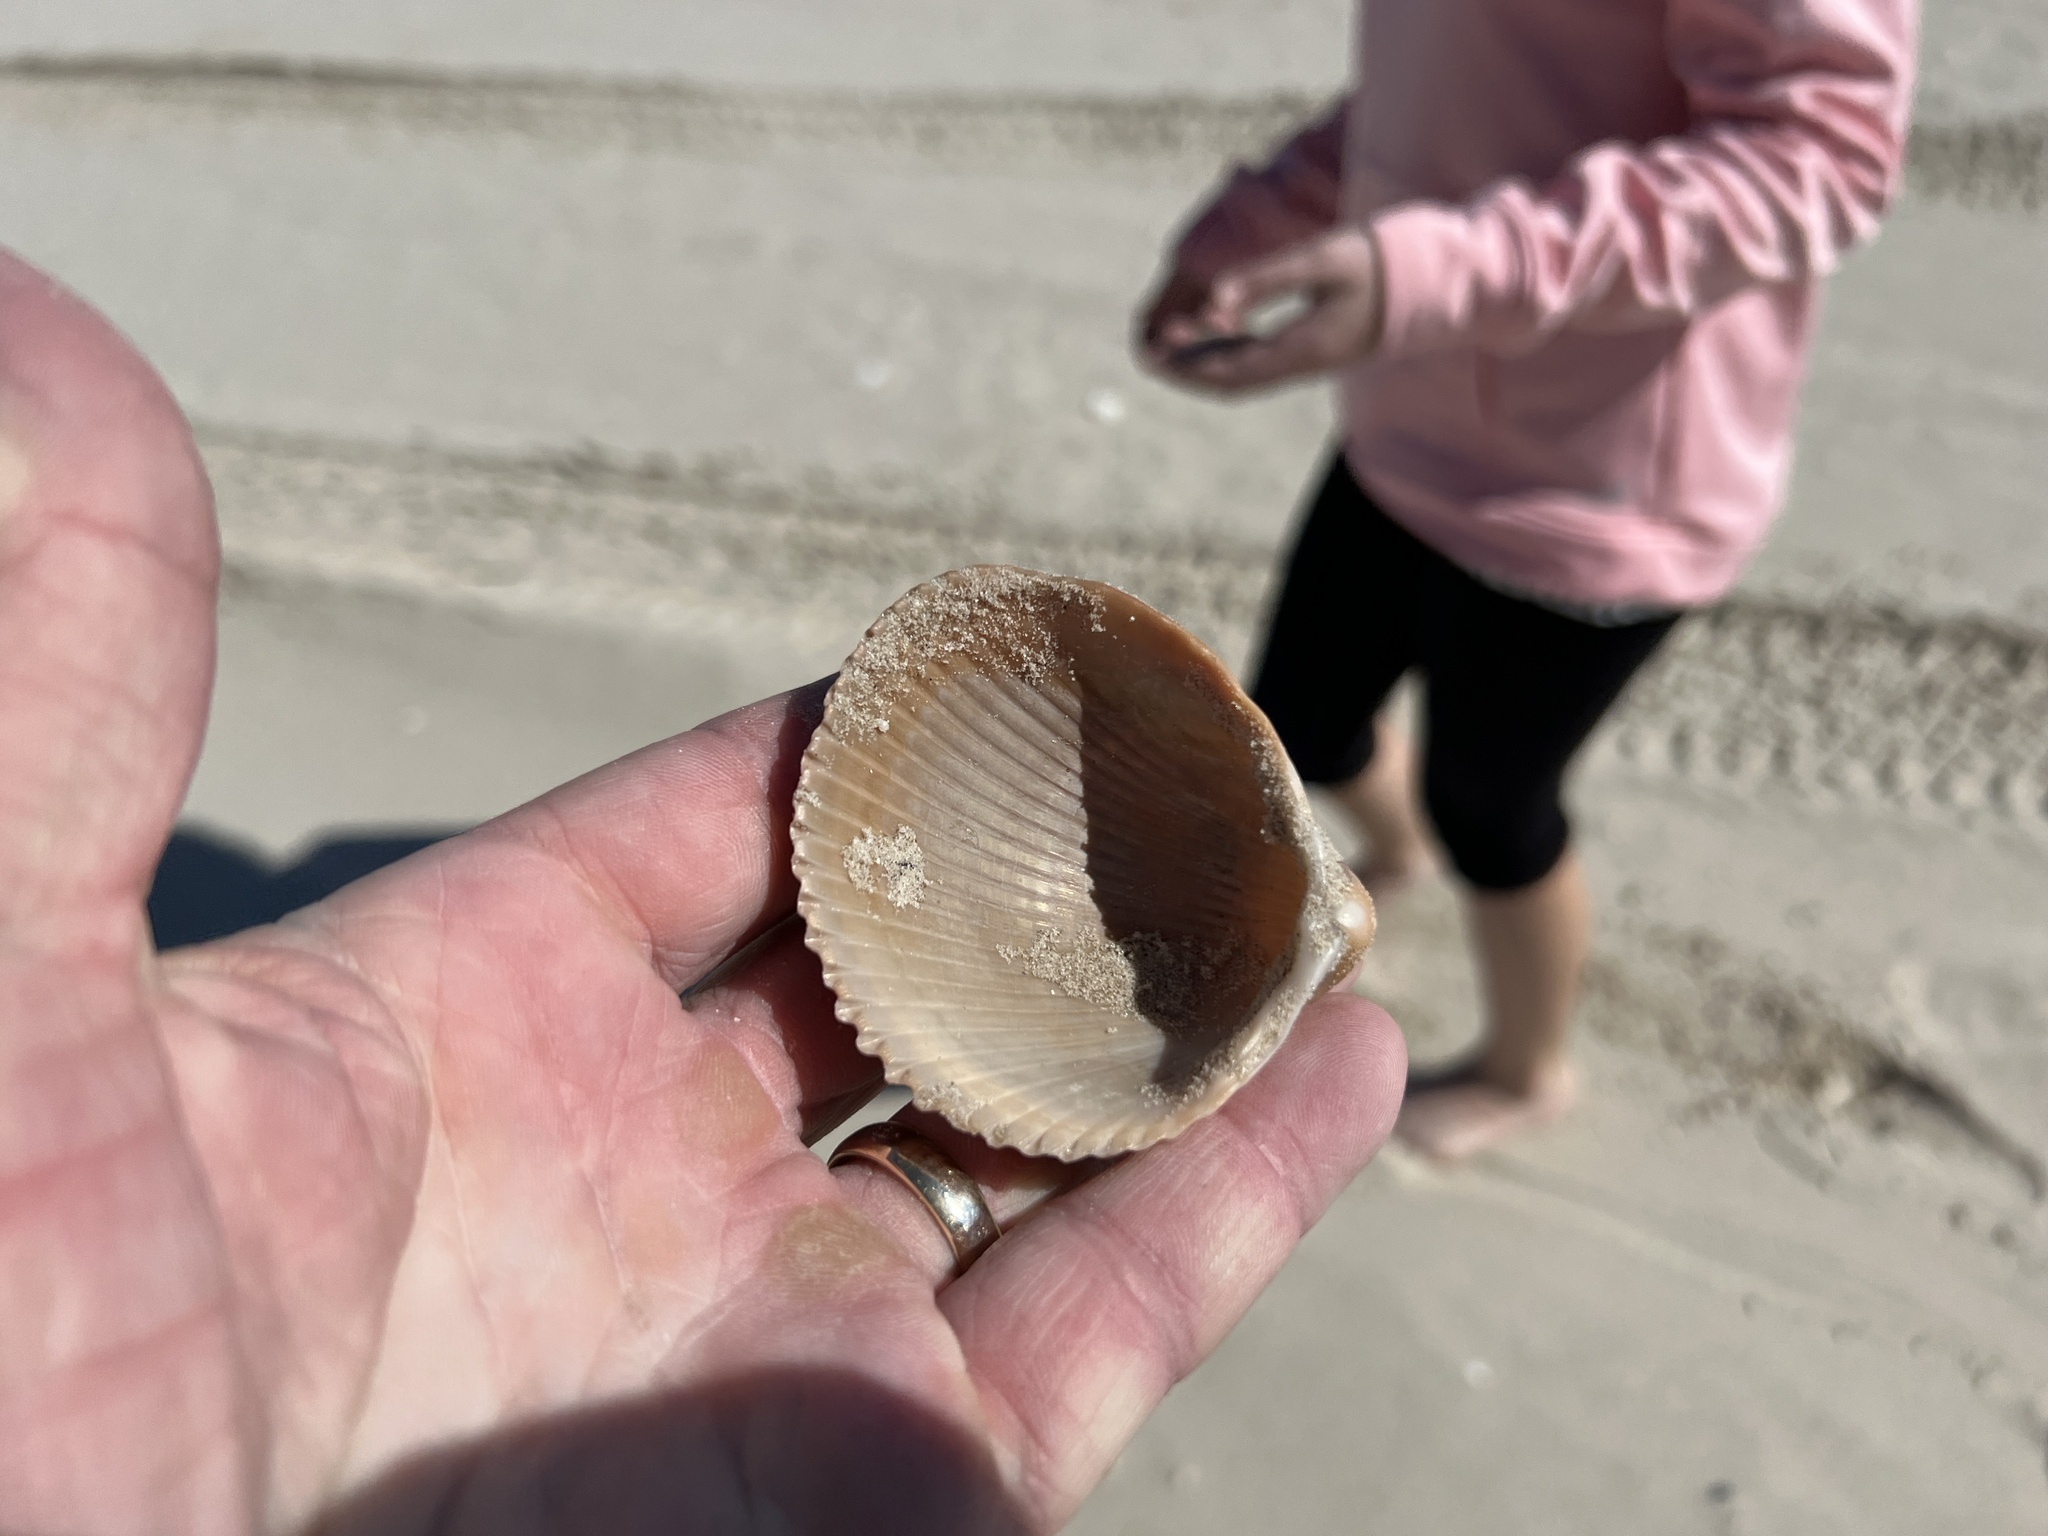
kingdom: Animalia
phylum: Mollusca
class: Bivalvia
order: Cardiida
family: Cardiidae
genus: Dinocardium
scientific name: Dinocardium robustum
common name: Atlantic giant cockle
